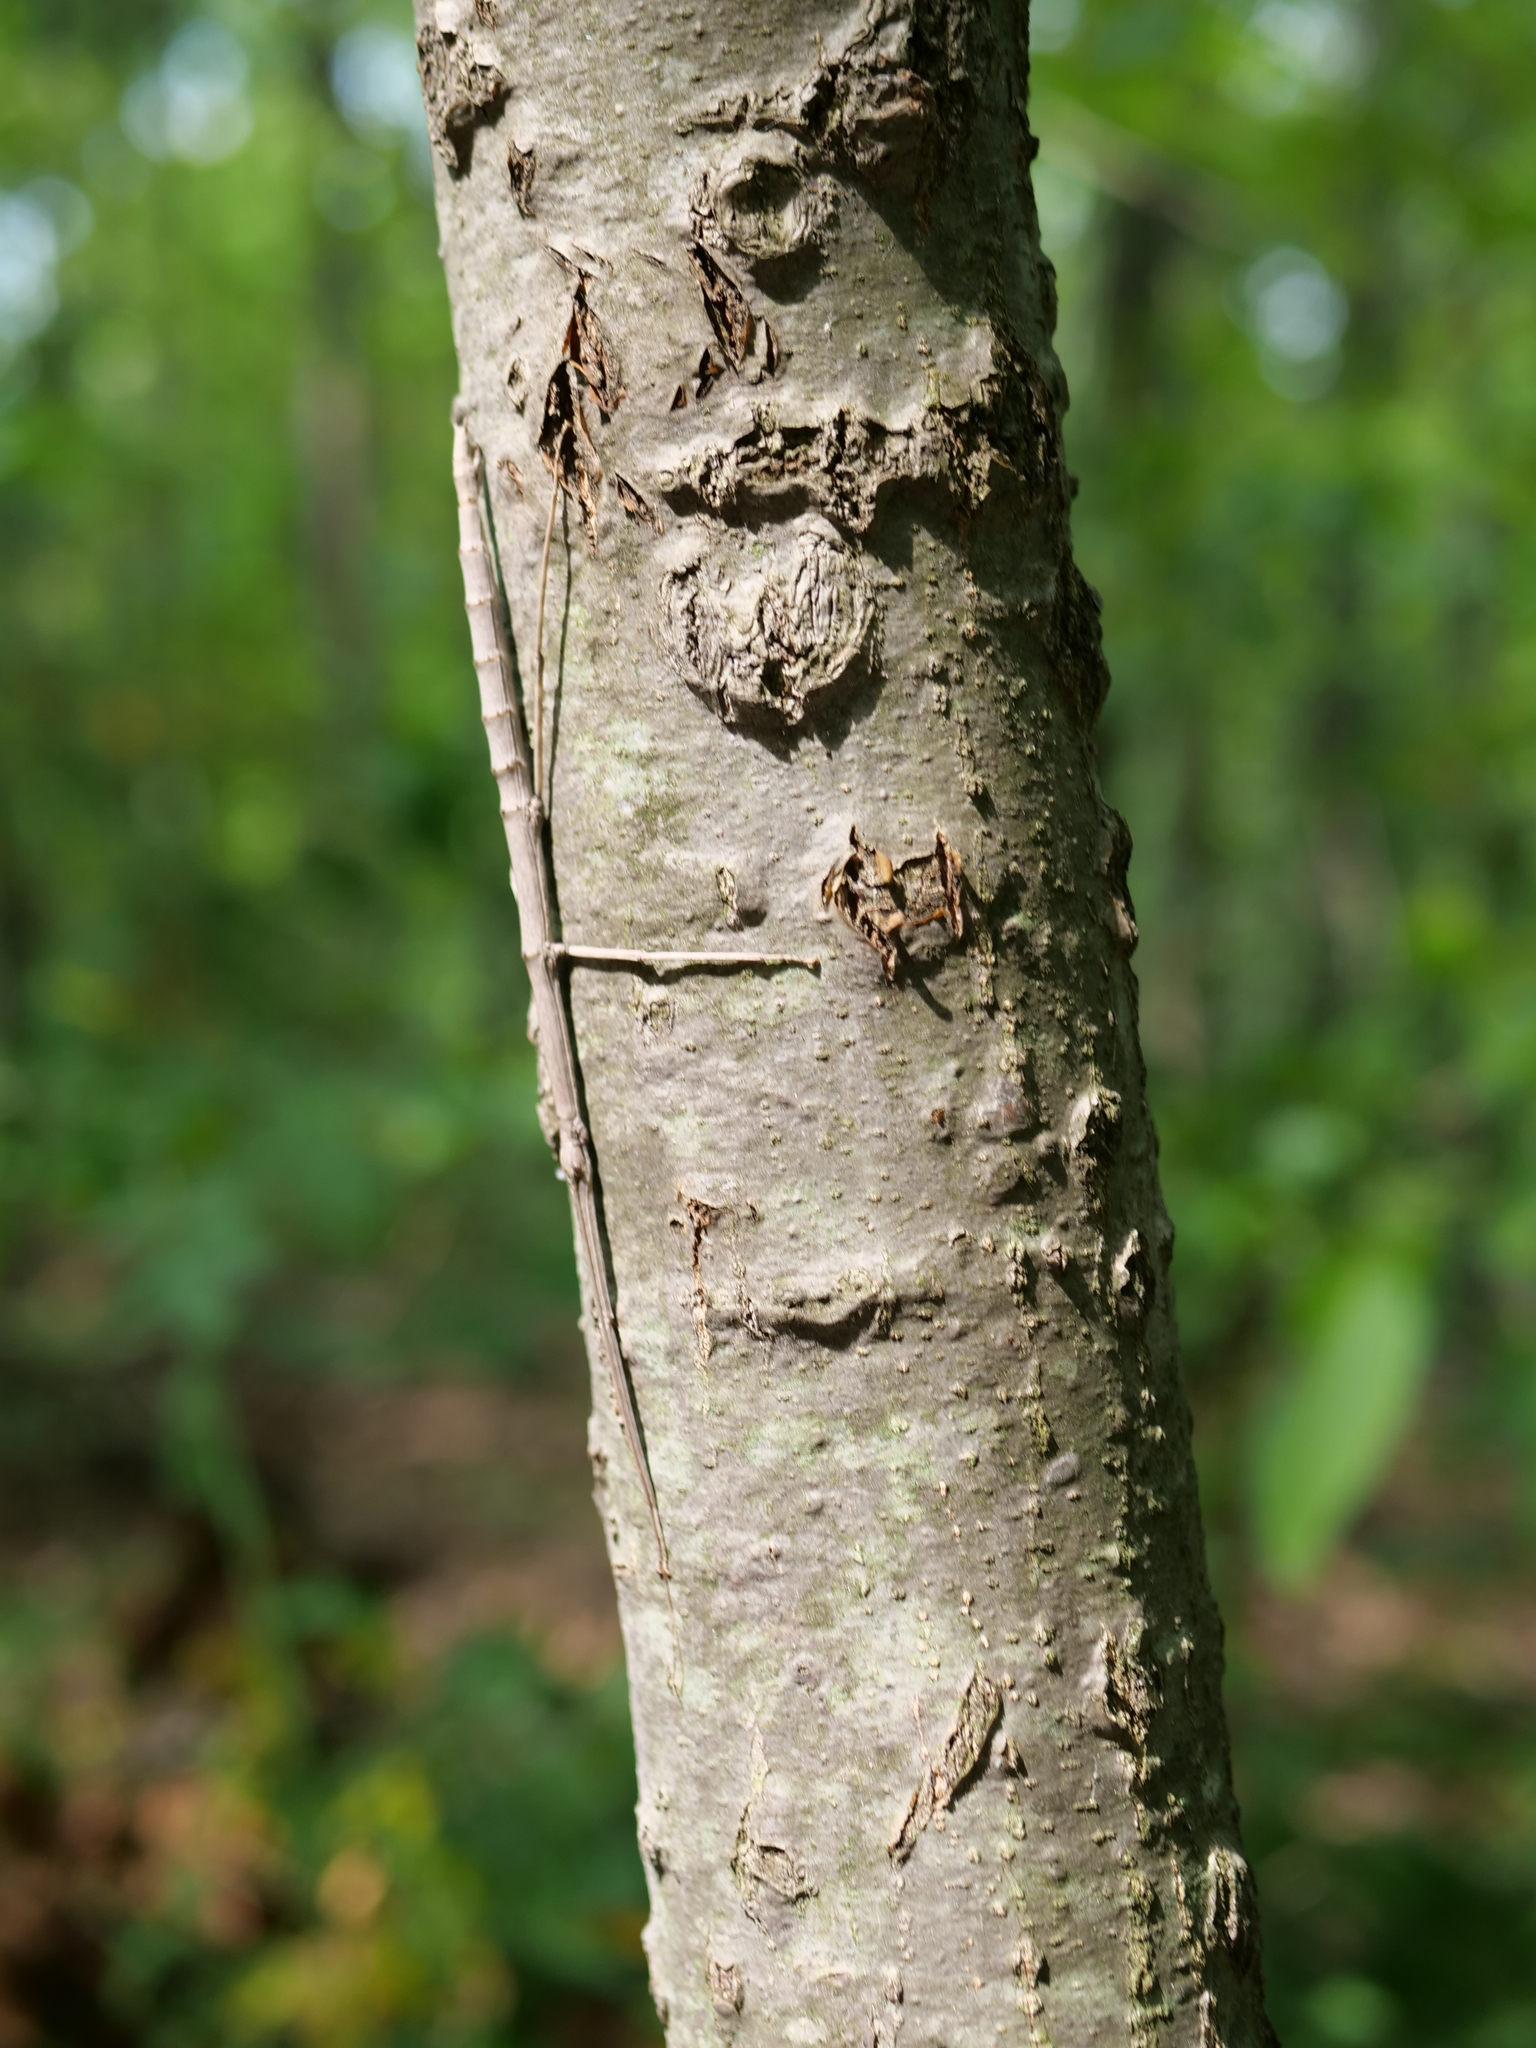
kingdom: Animalia
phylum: Arthropoda
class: Insecta
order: Phasmida
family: Diapheromeridae
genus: Diapheromera
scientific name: Diapheromera femorata
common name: Common american walkingstick
